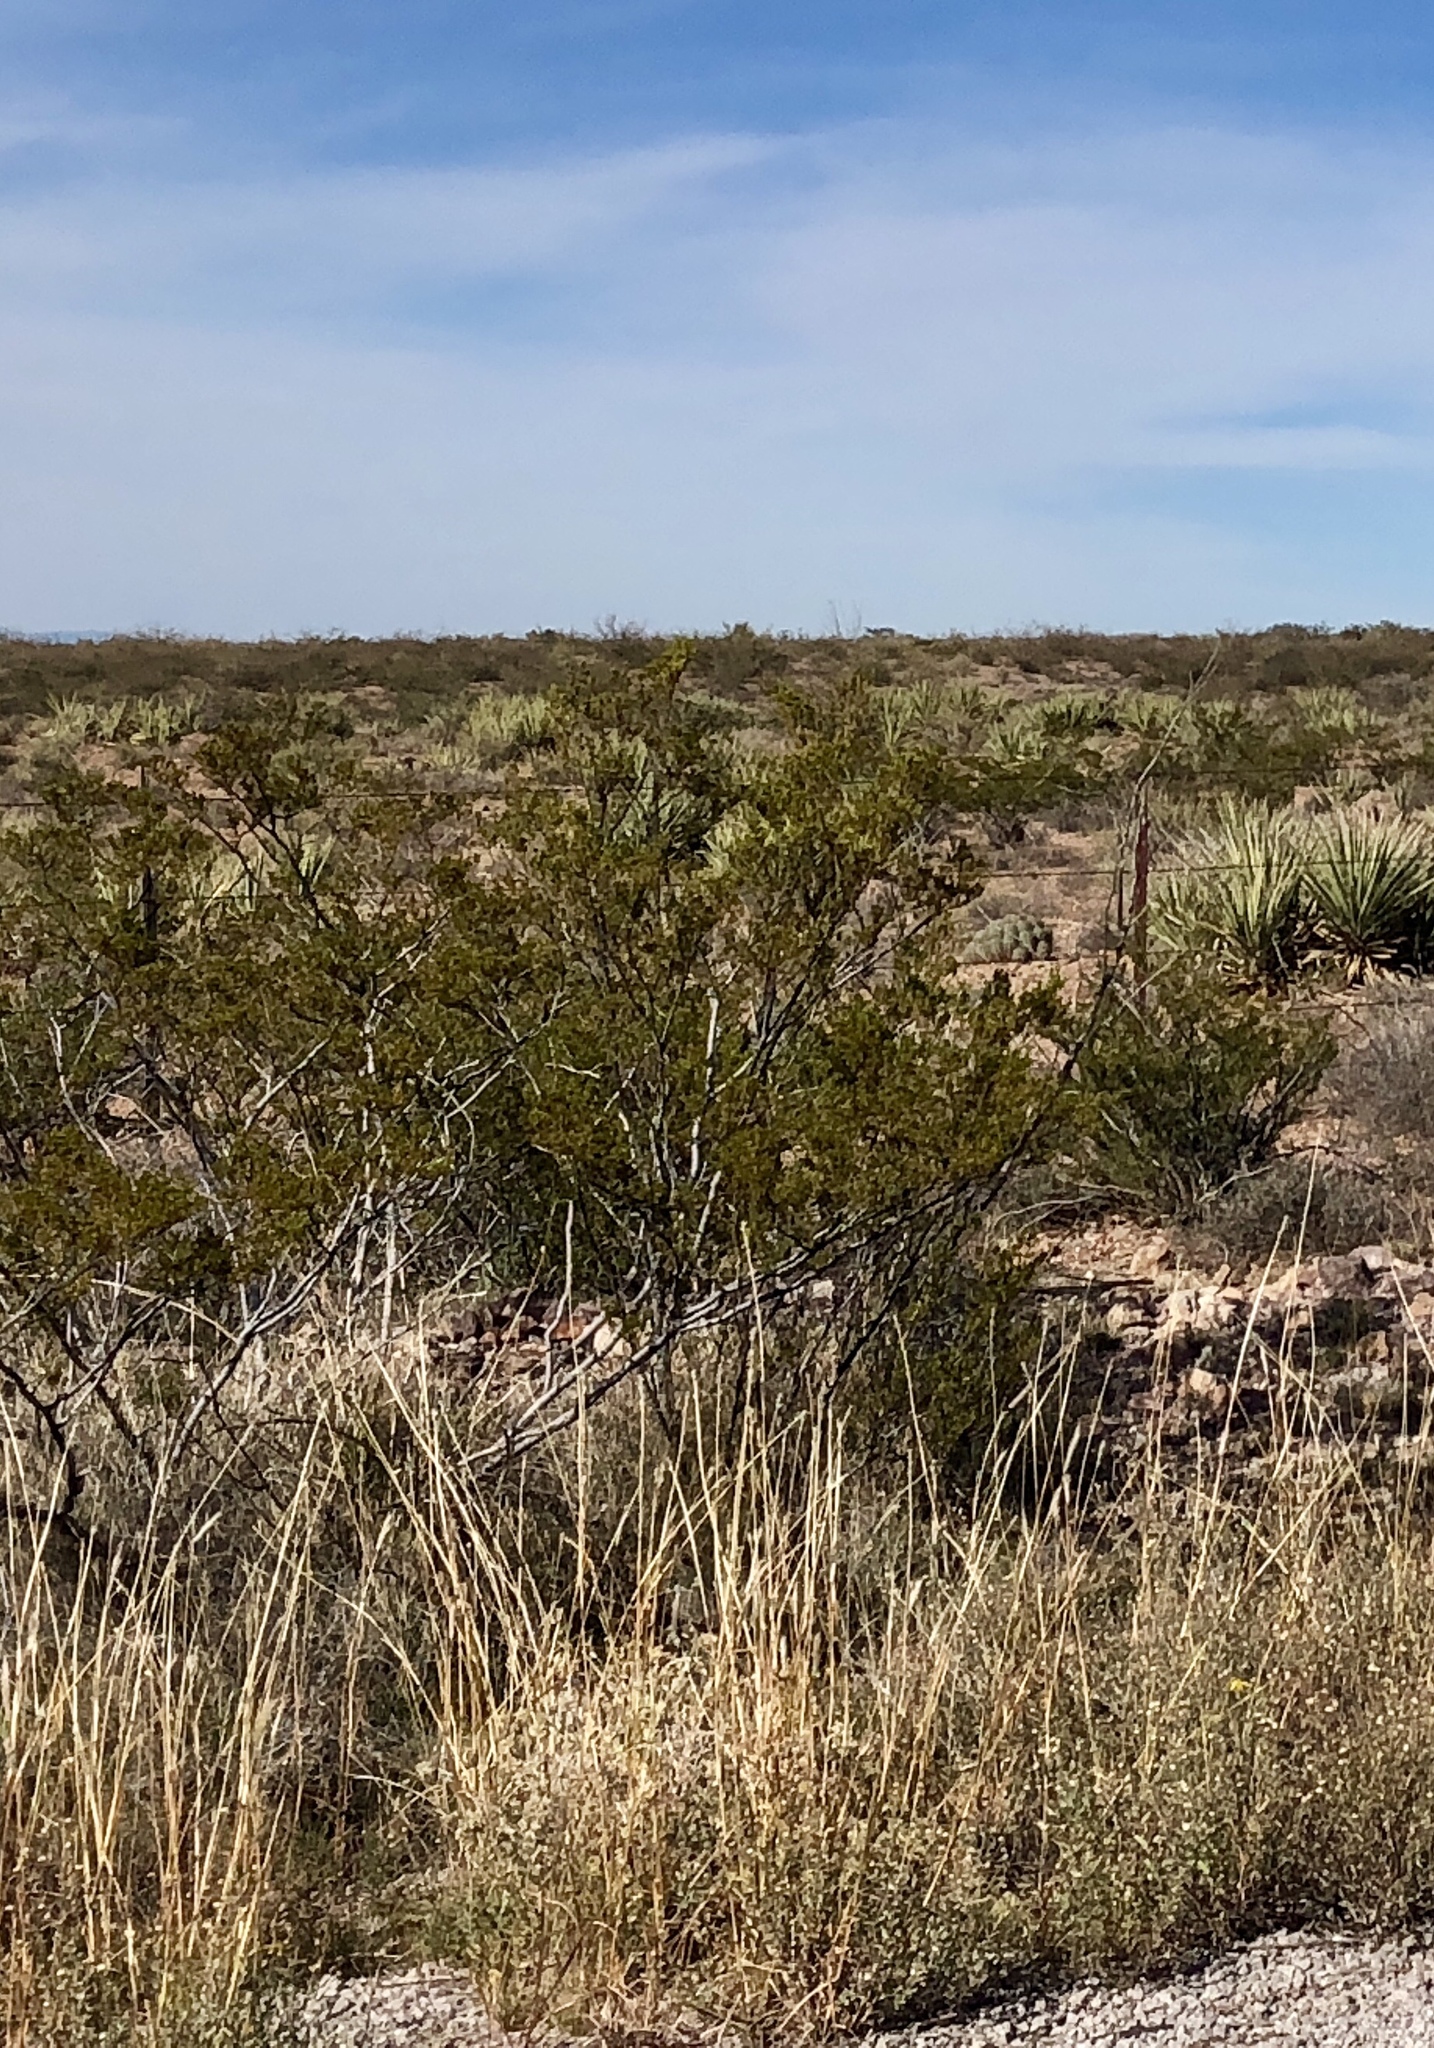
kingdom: Plantae
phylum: Tracheophyta
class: Magnoliopsida
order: Zygophyllales
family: Zygophyllaceae
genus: Larrea
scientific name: Larrea tridentata
